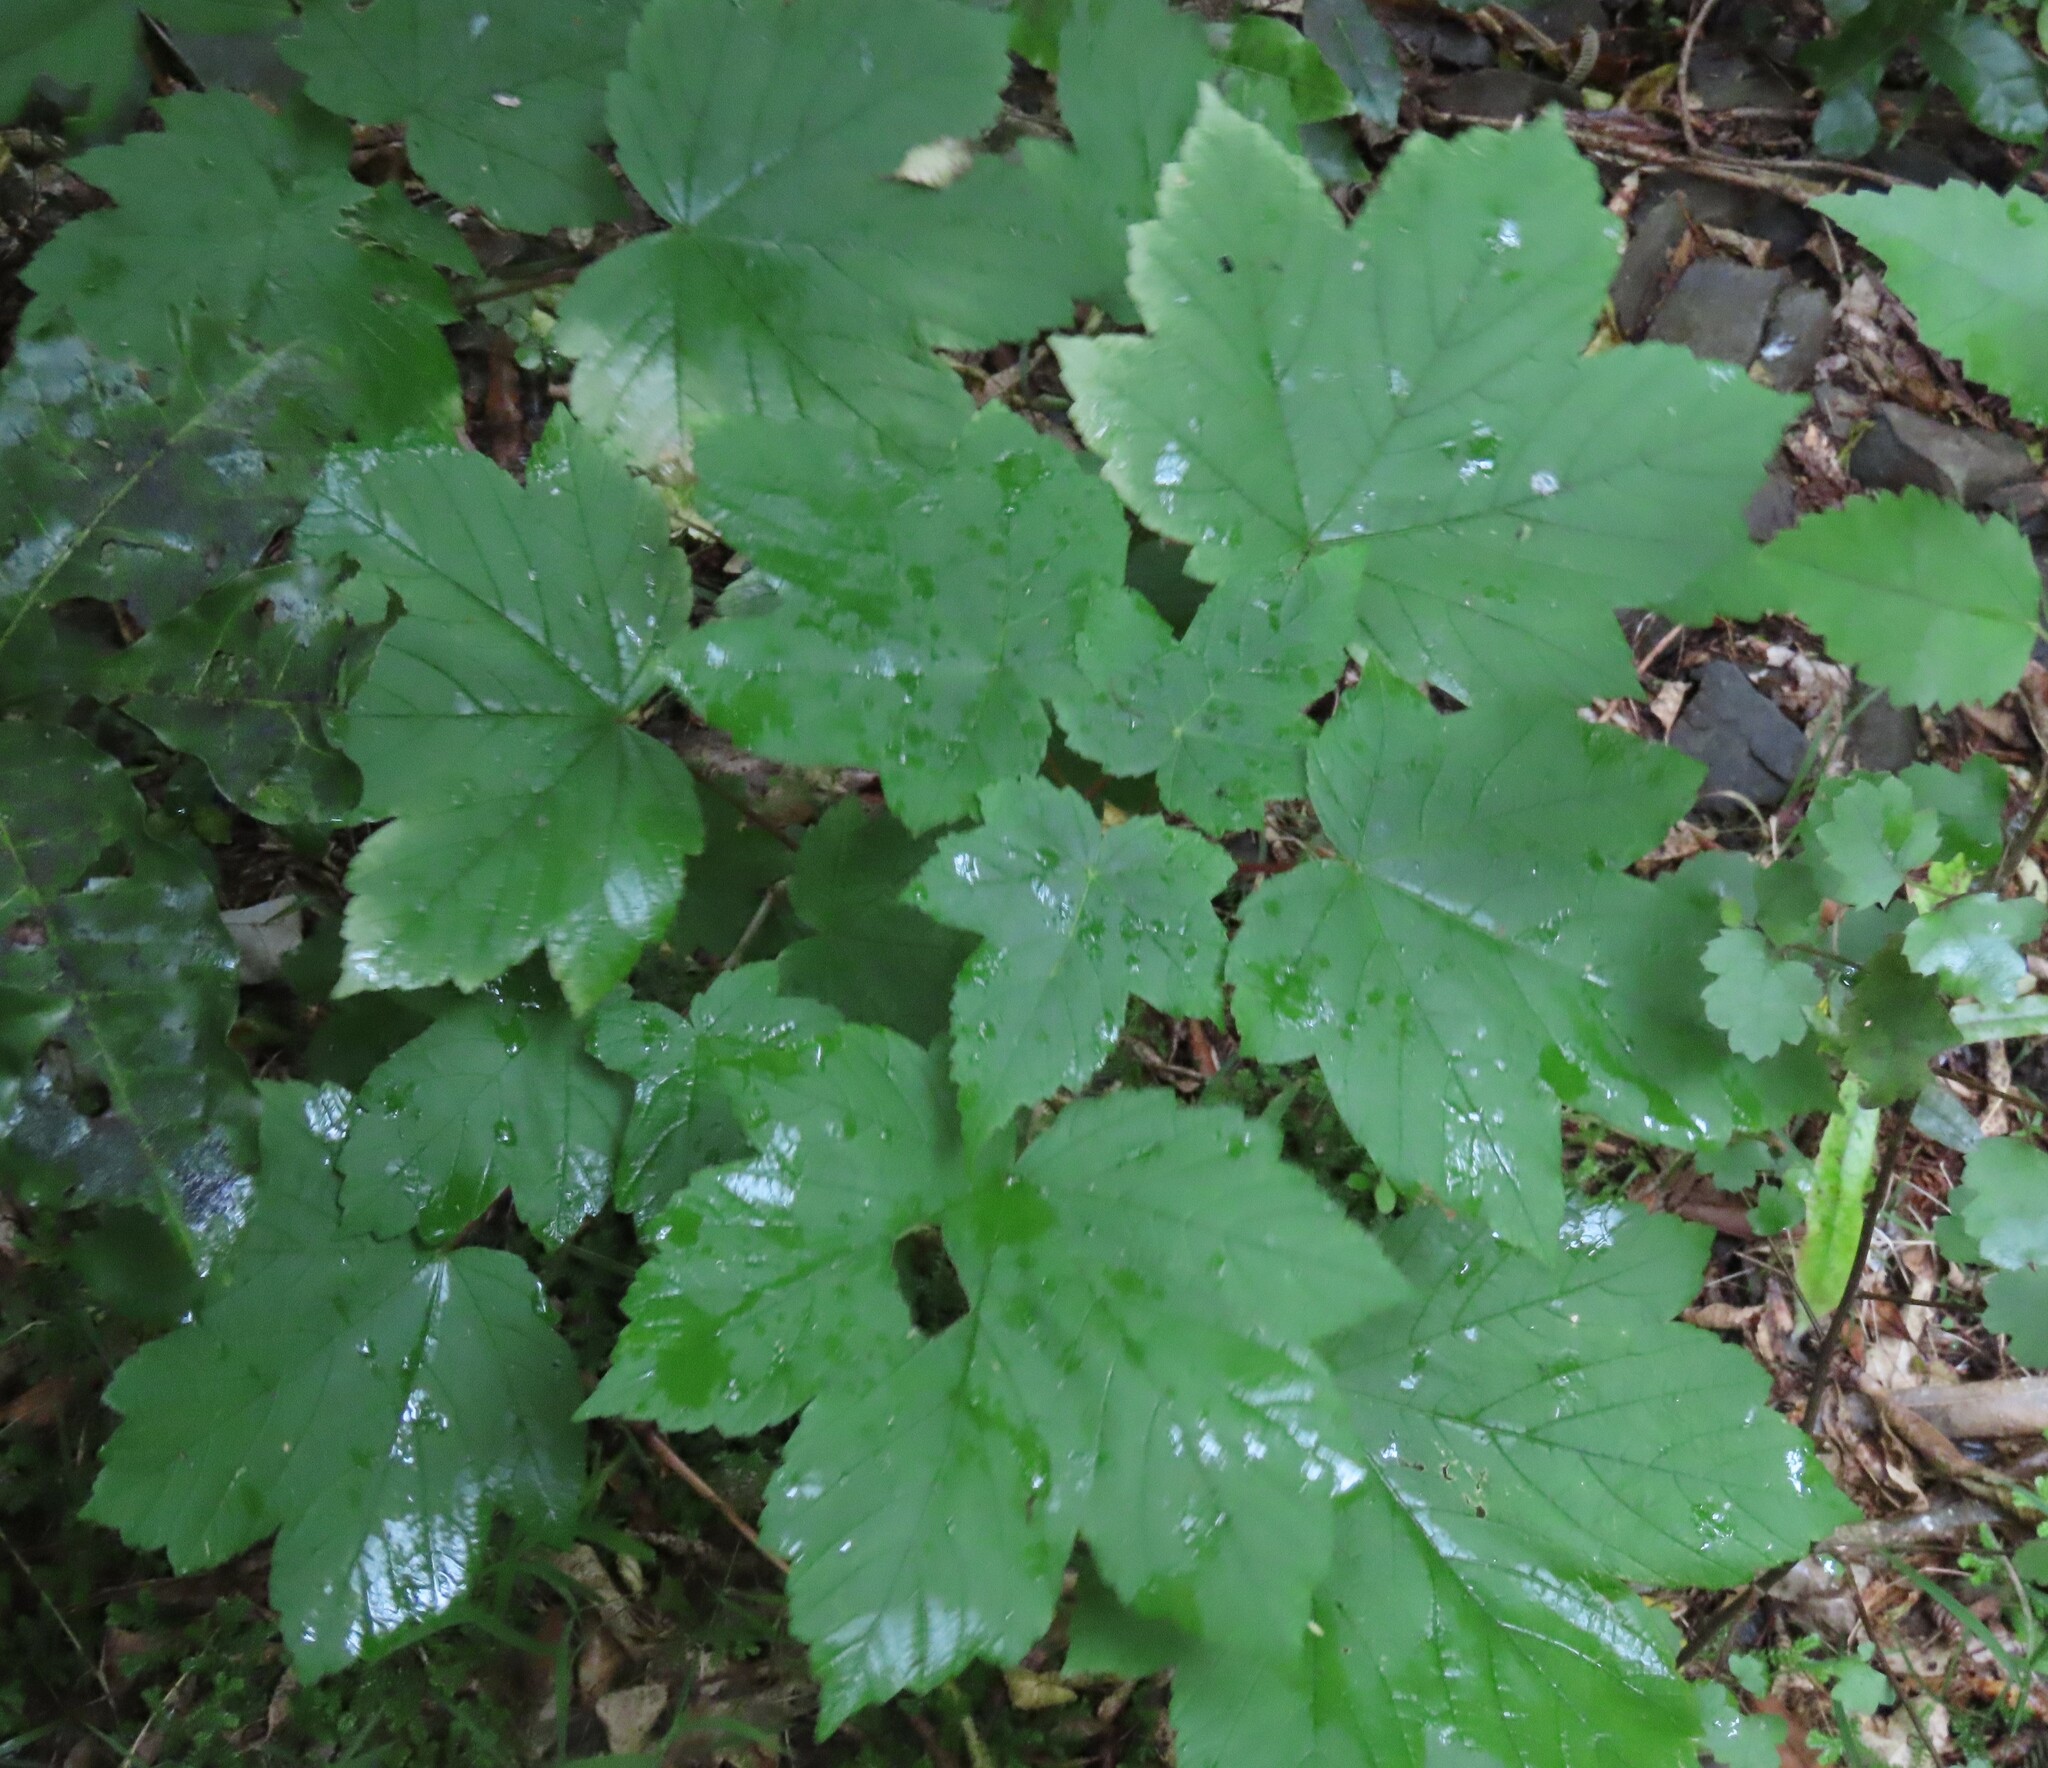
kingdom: Plantae
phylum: Tracheophyta
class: Magnoliopsida
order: Sapindales
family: Sapindaceae
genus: Acer
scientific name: Acer pseudoplatanus
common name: Sycamore
